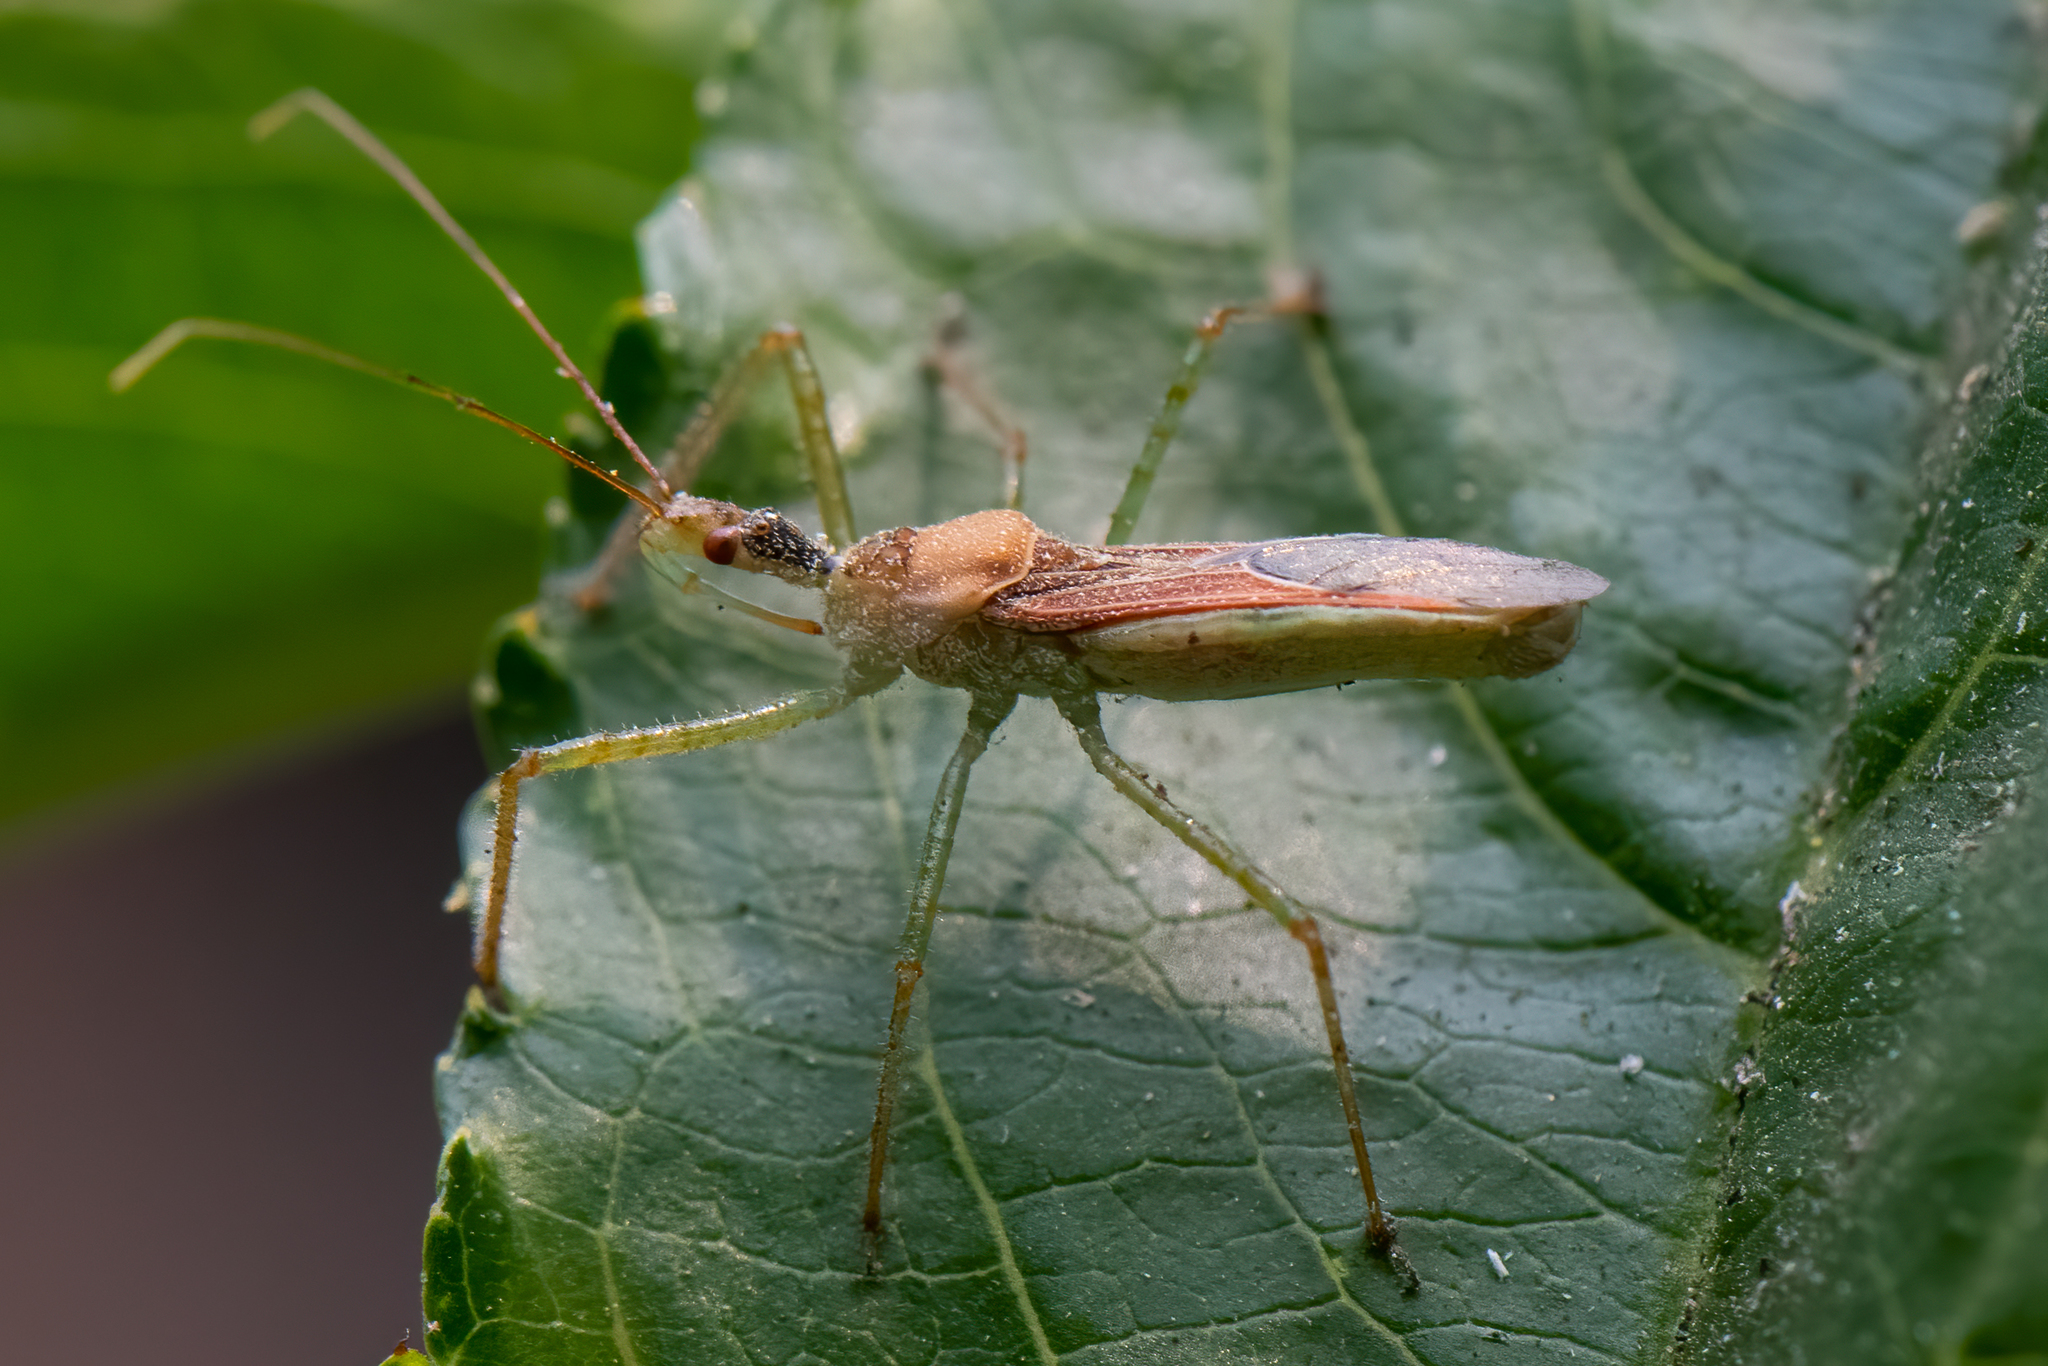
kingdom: Animalia
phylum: Arthropoda
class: Insecta
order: Hemiptera
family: Reduviidae
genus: Zelus
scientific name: Zelus renardii
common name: Assassin bug
